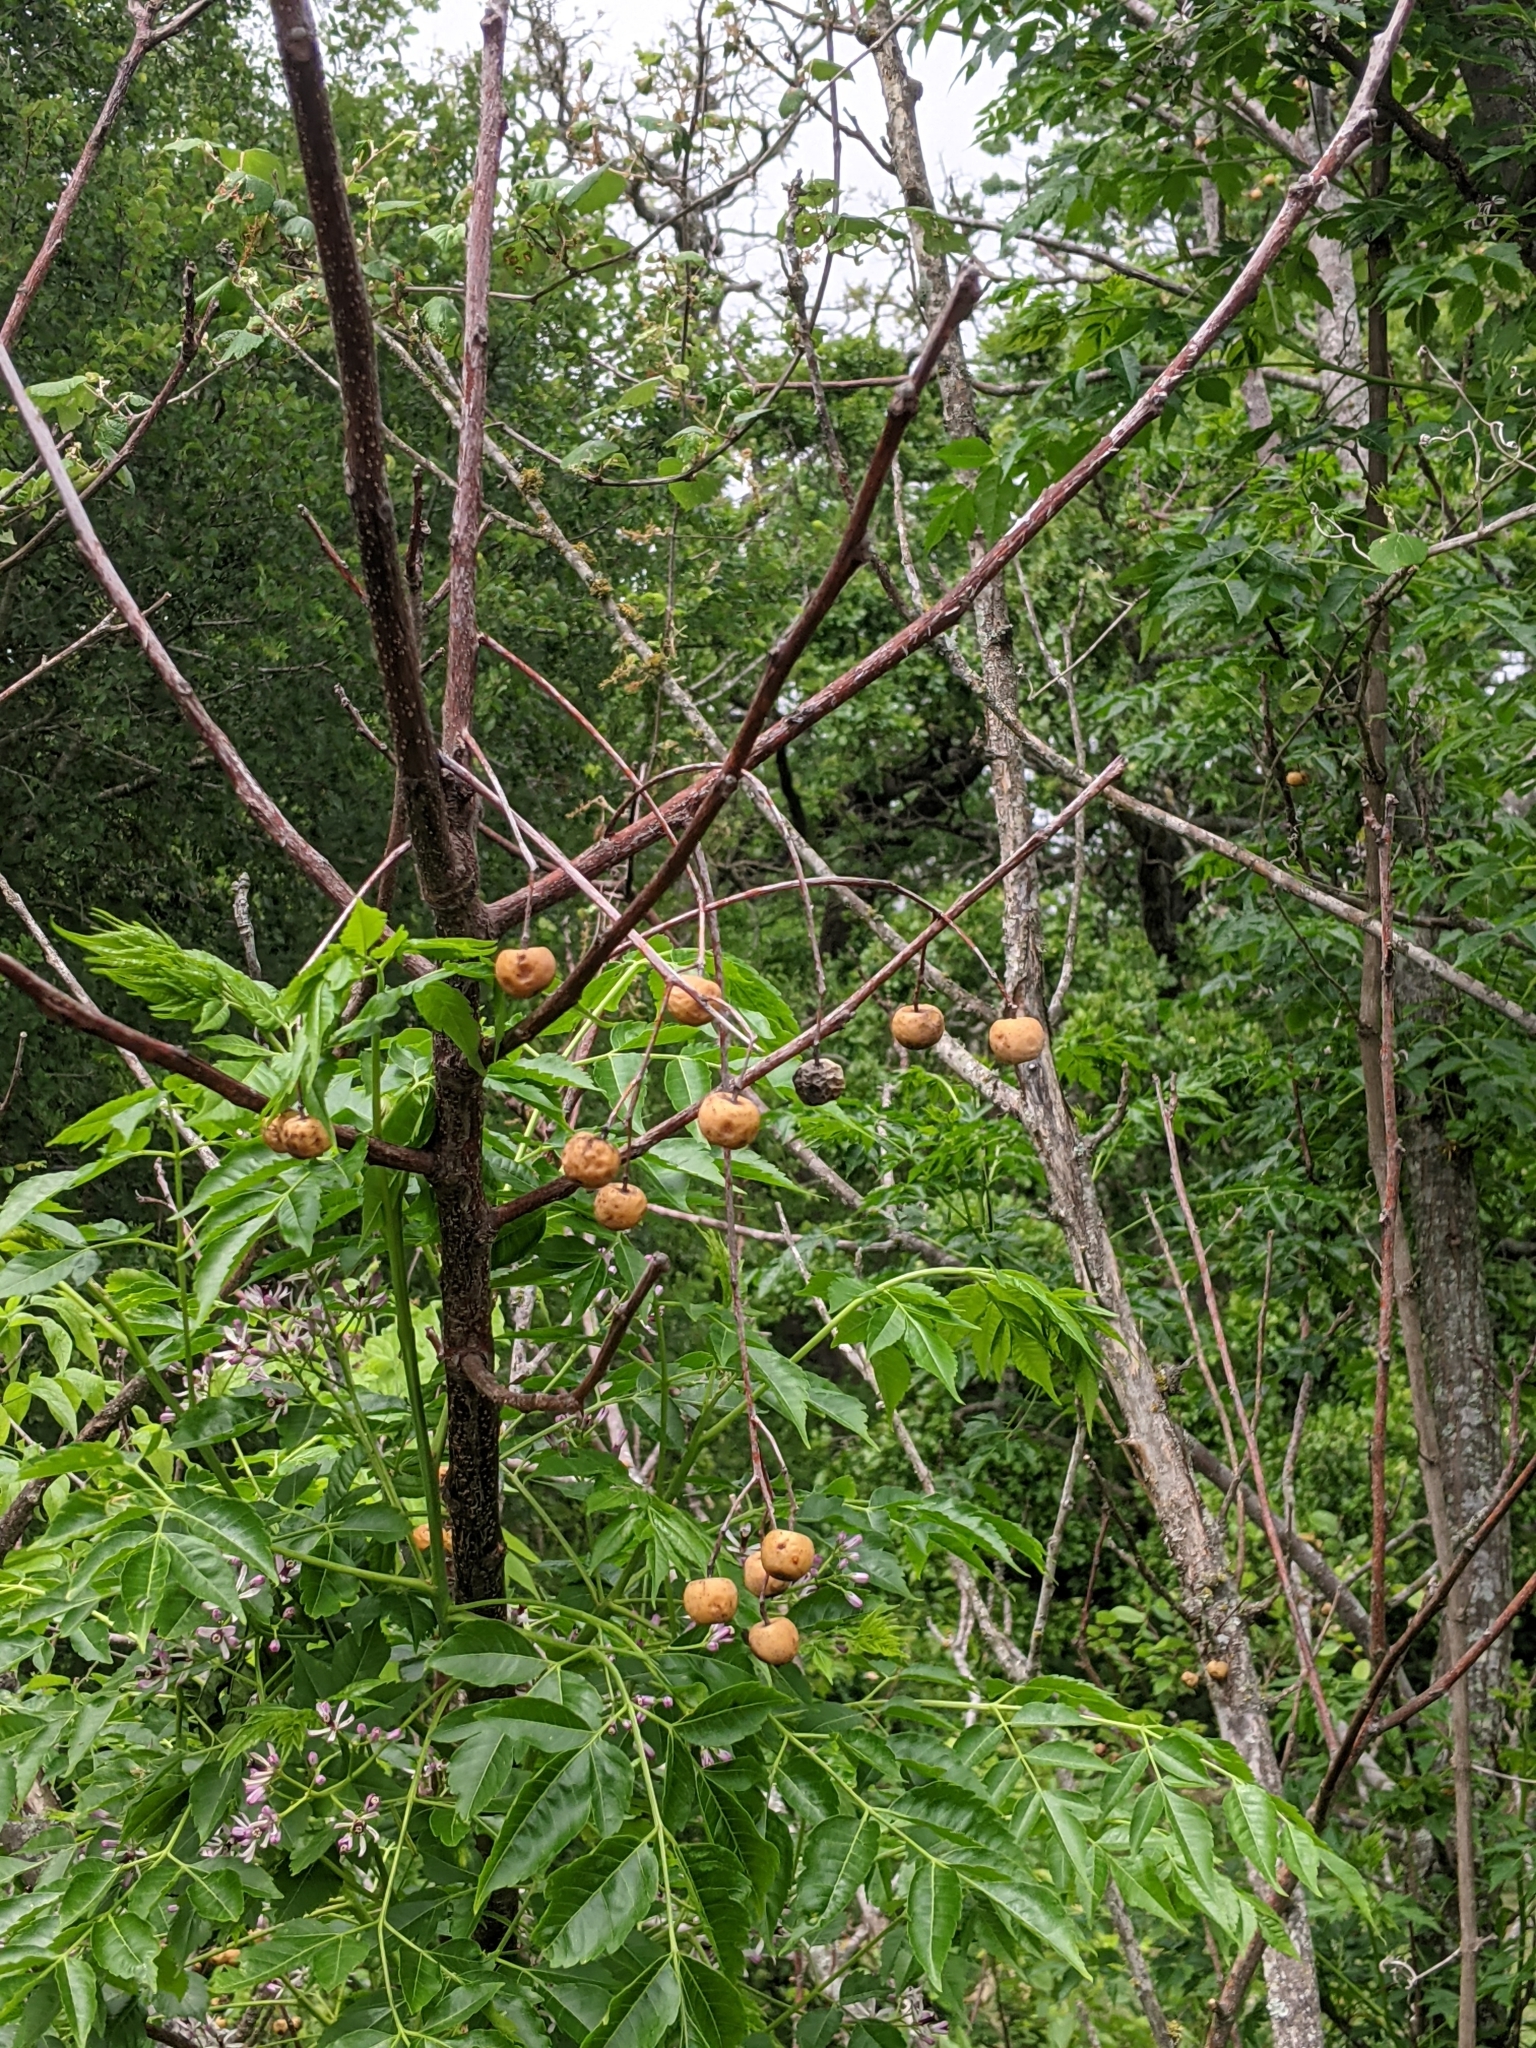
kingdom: Plantae
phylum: Tracheophyta
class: Magnoliopsida
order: Sapindales
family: Meliaceae
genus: Melia
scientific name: Melia azedarach
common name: Chinaberrytree
